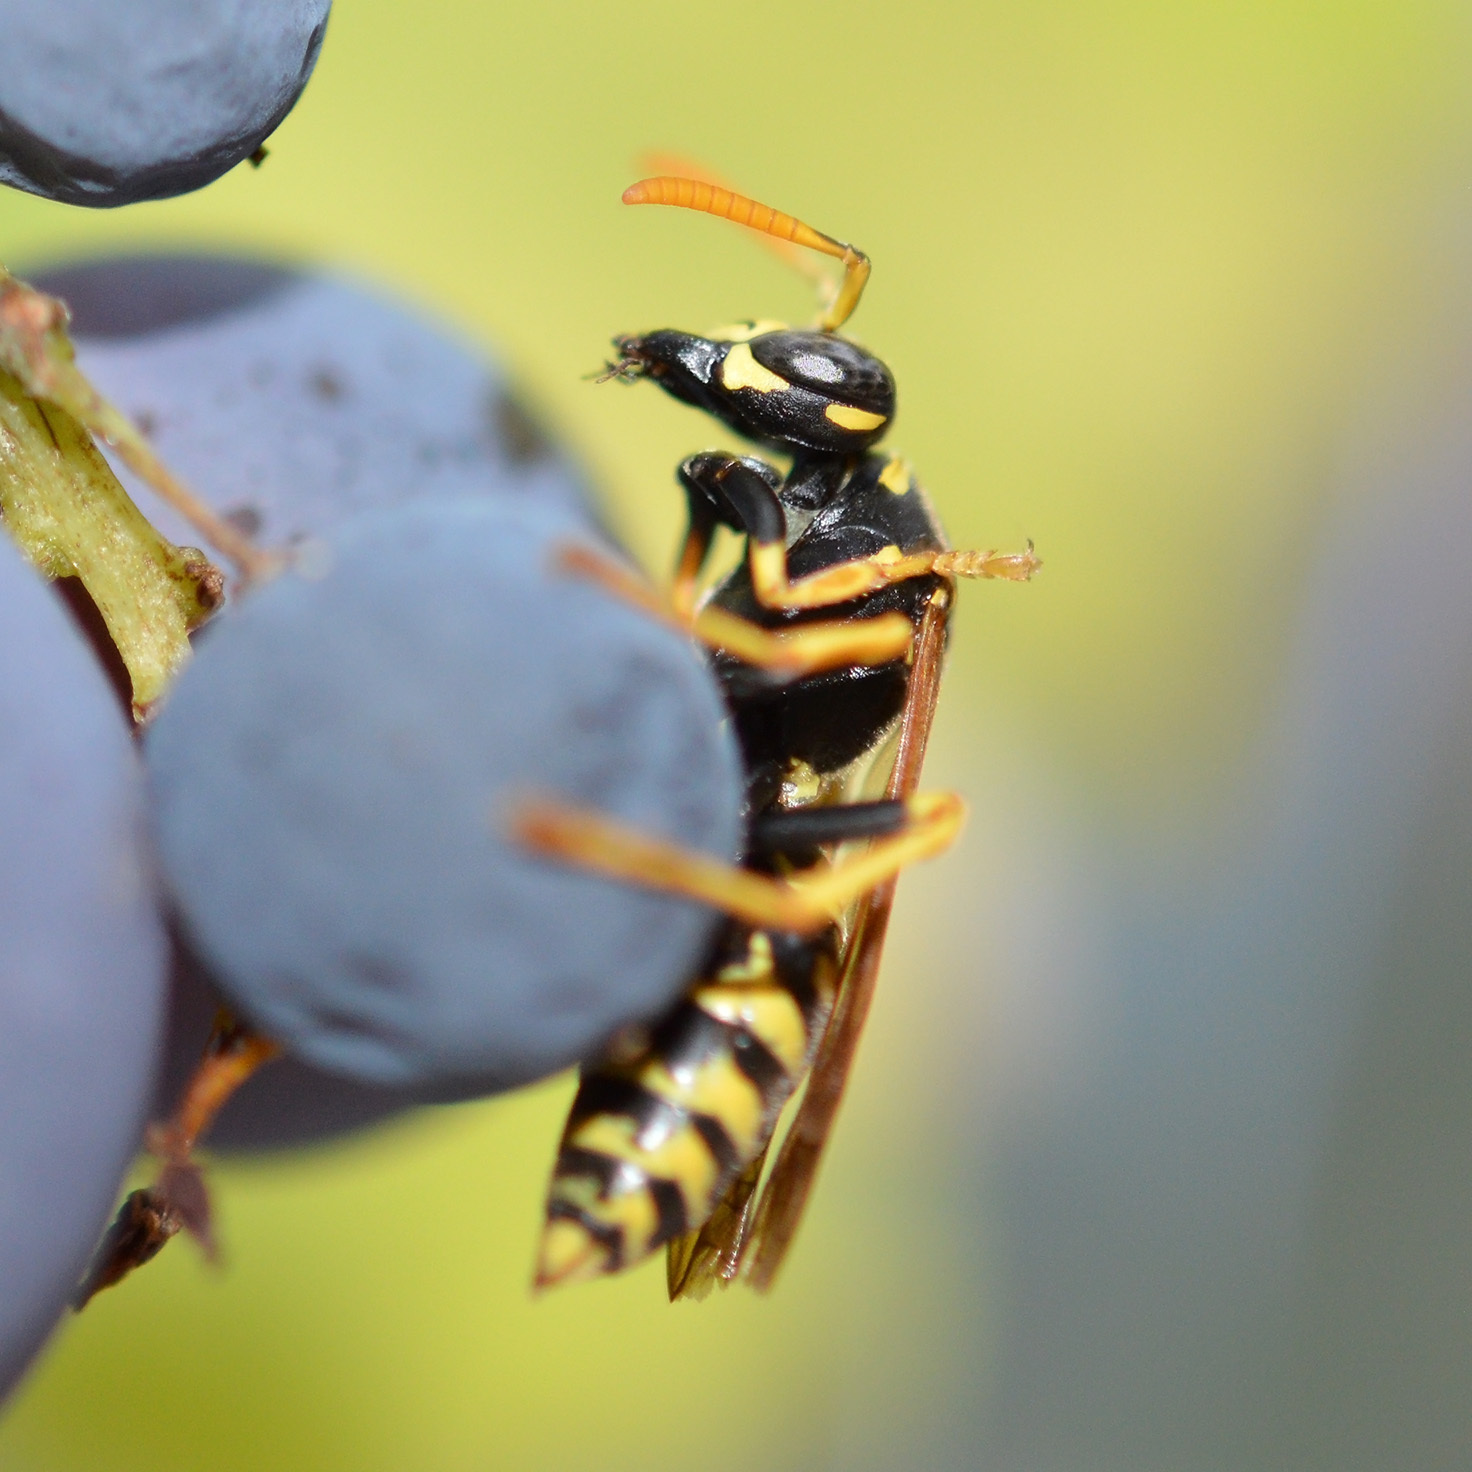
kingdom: Animalia
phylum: Arthropoda
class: Insecta
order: Hymenoptera
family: Eumenidae
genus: Polistes
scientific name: Polistes dominula
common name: Paper wasp
